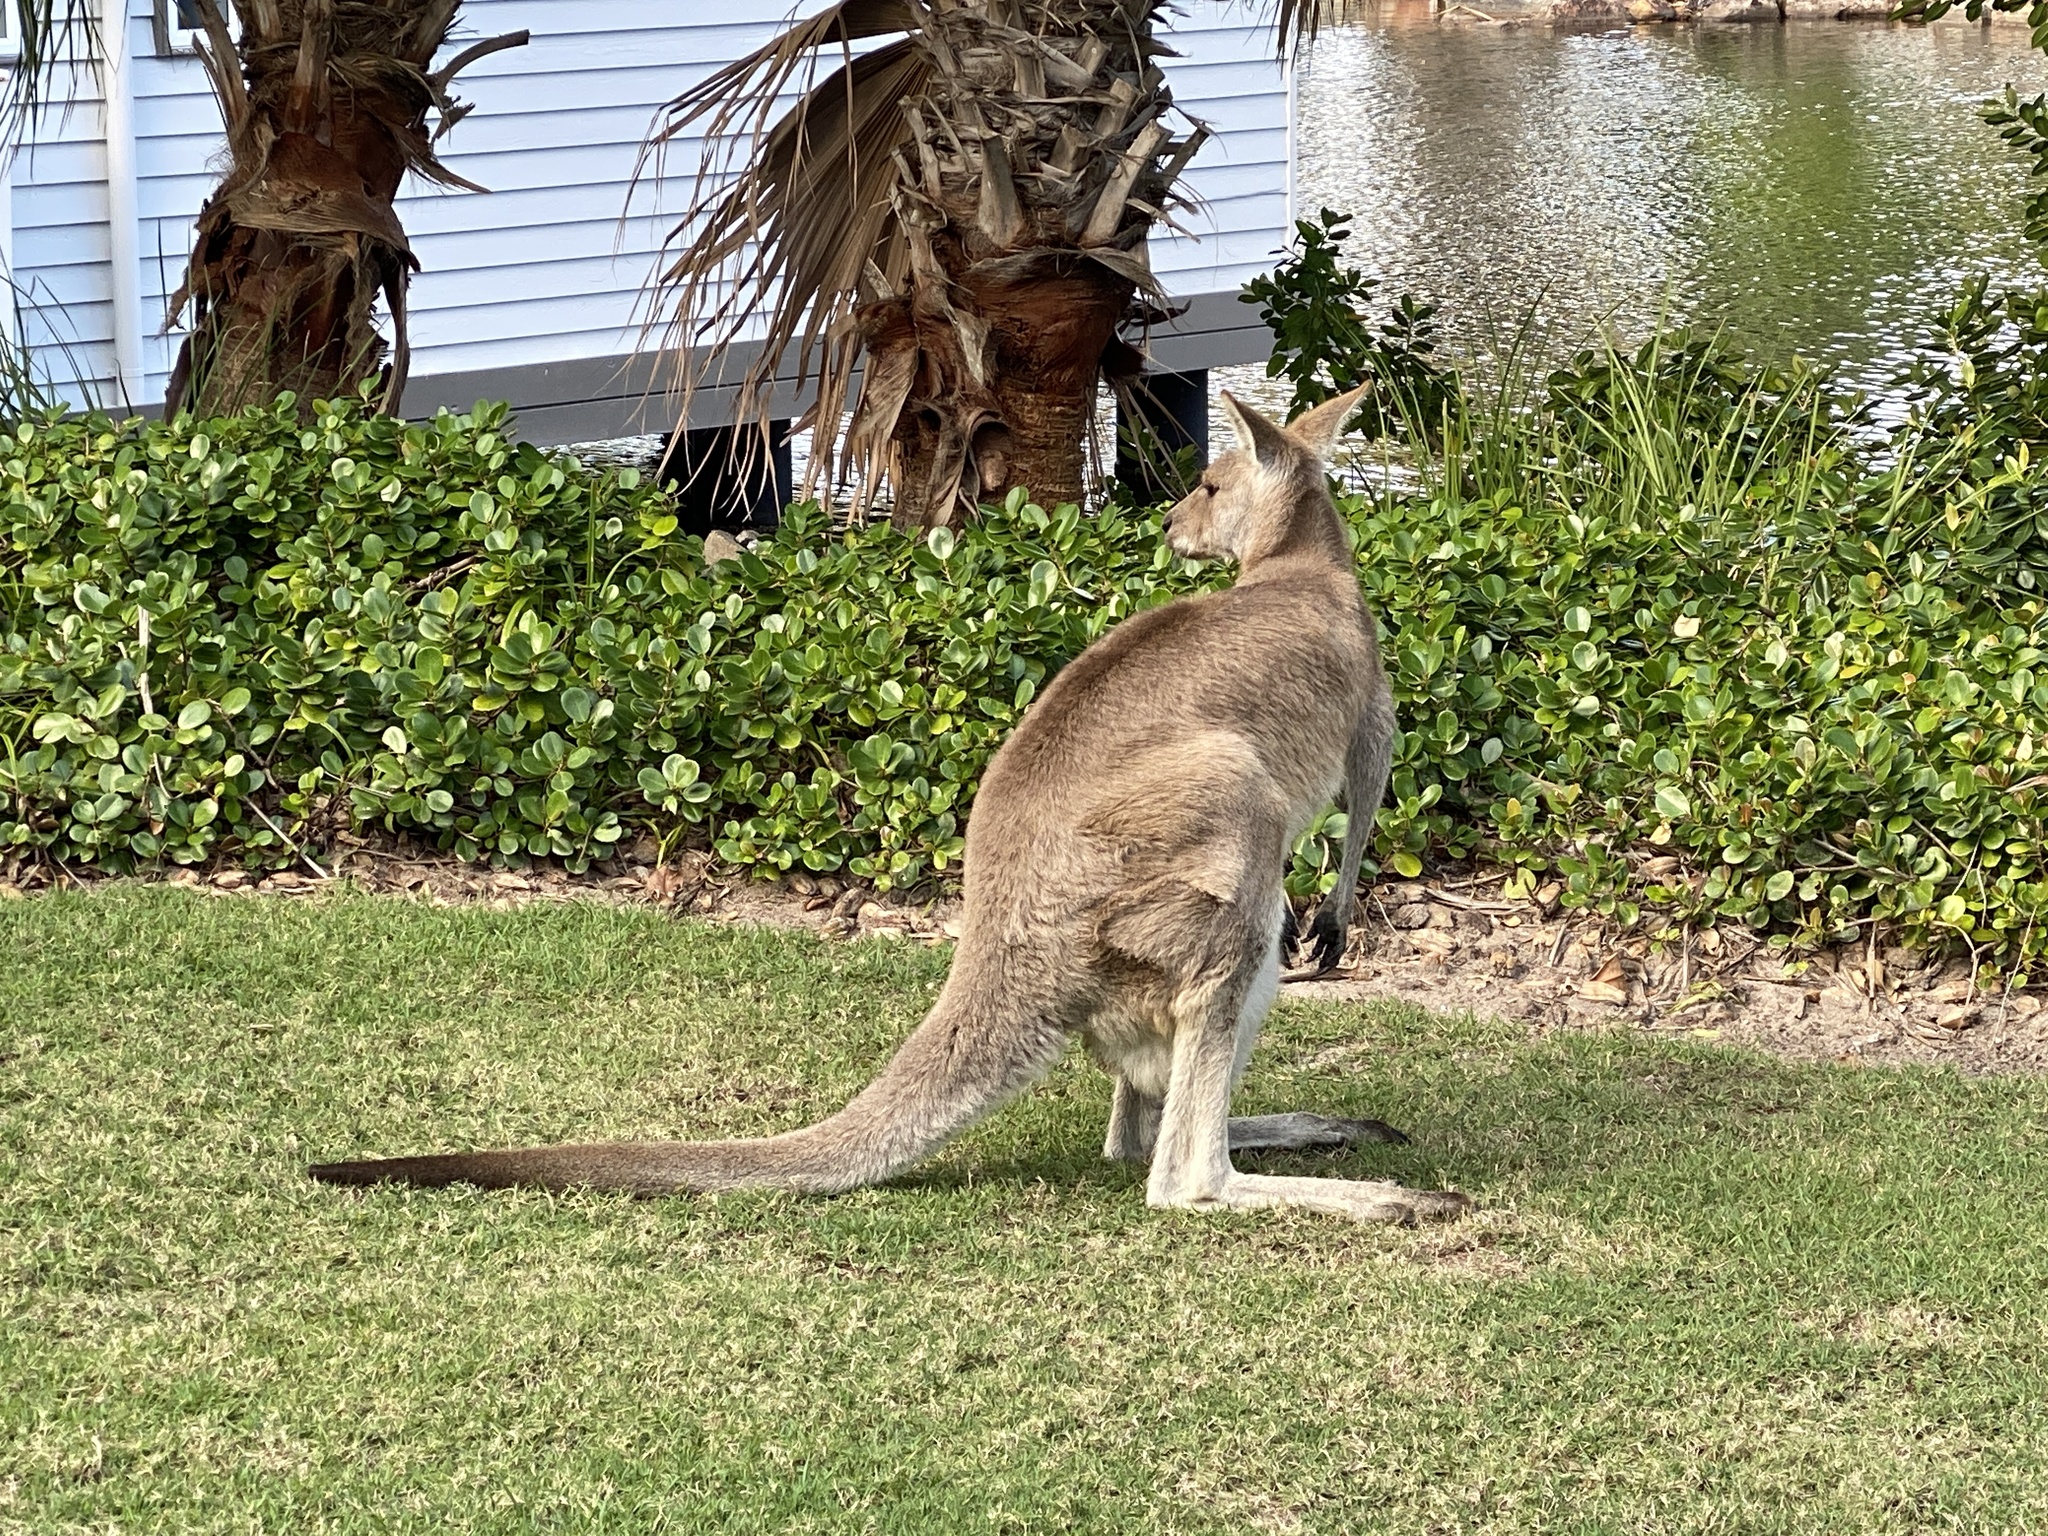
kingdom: Animalia
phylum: Chordata
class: Mammalia
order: Diprotodontia
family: Macropodidae
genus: Macropus
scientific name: Macropus giganteus
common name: Eastern grey kangaroo
